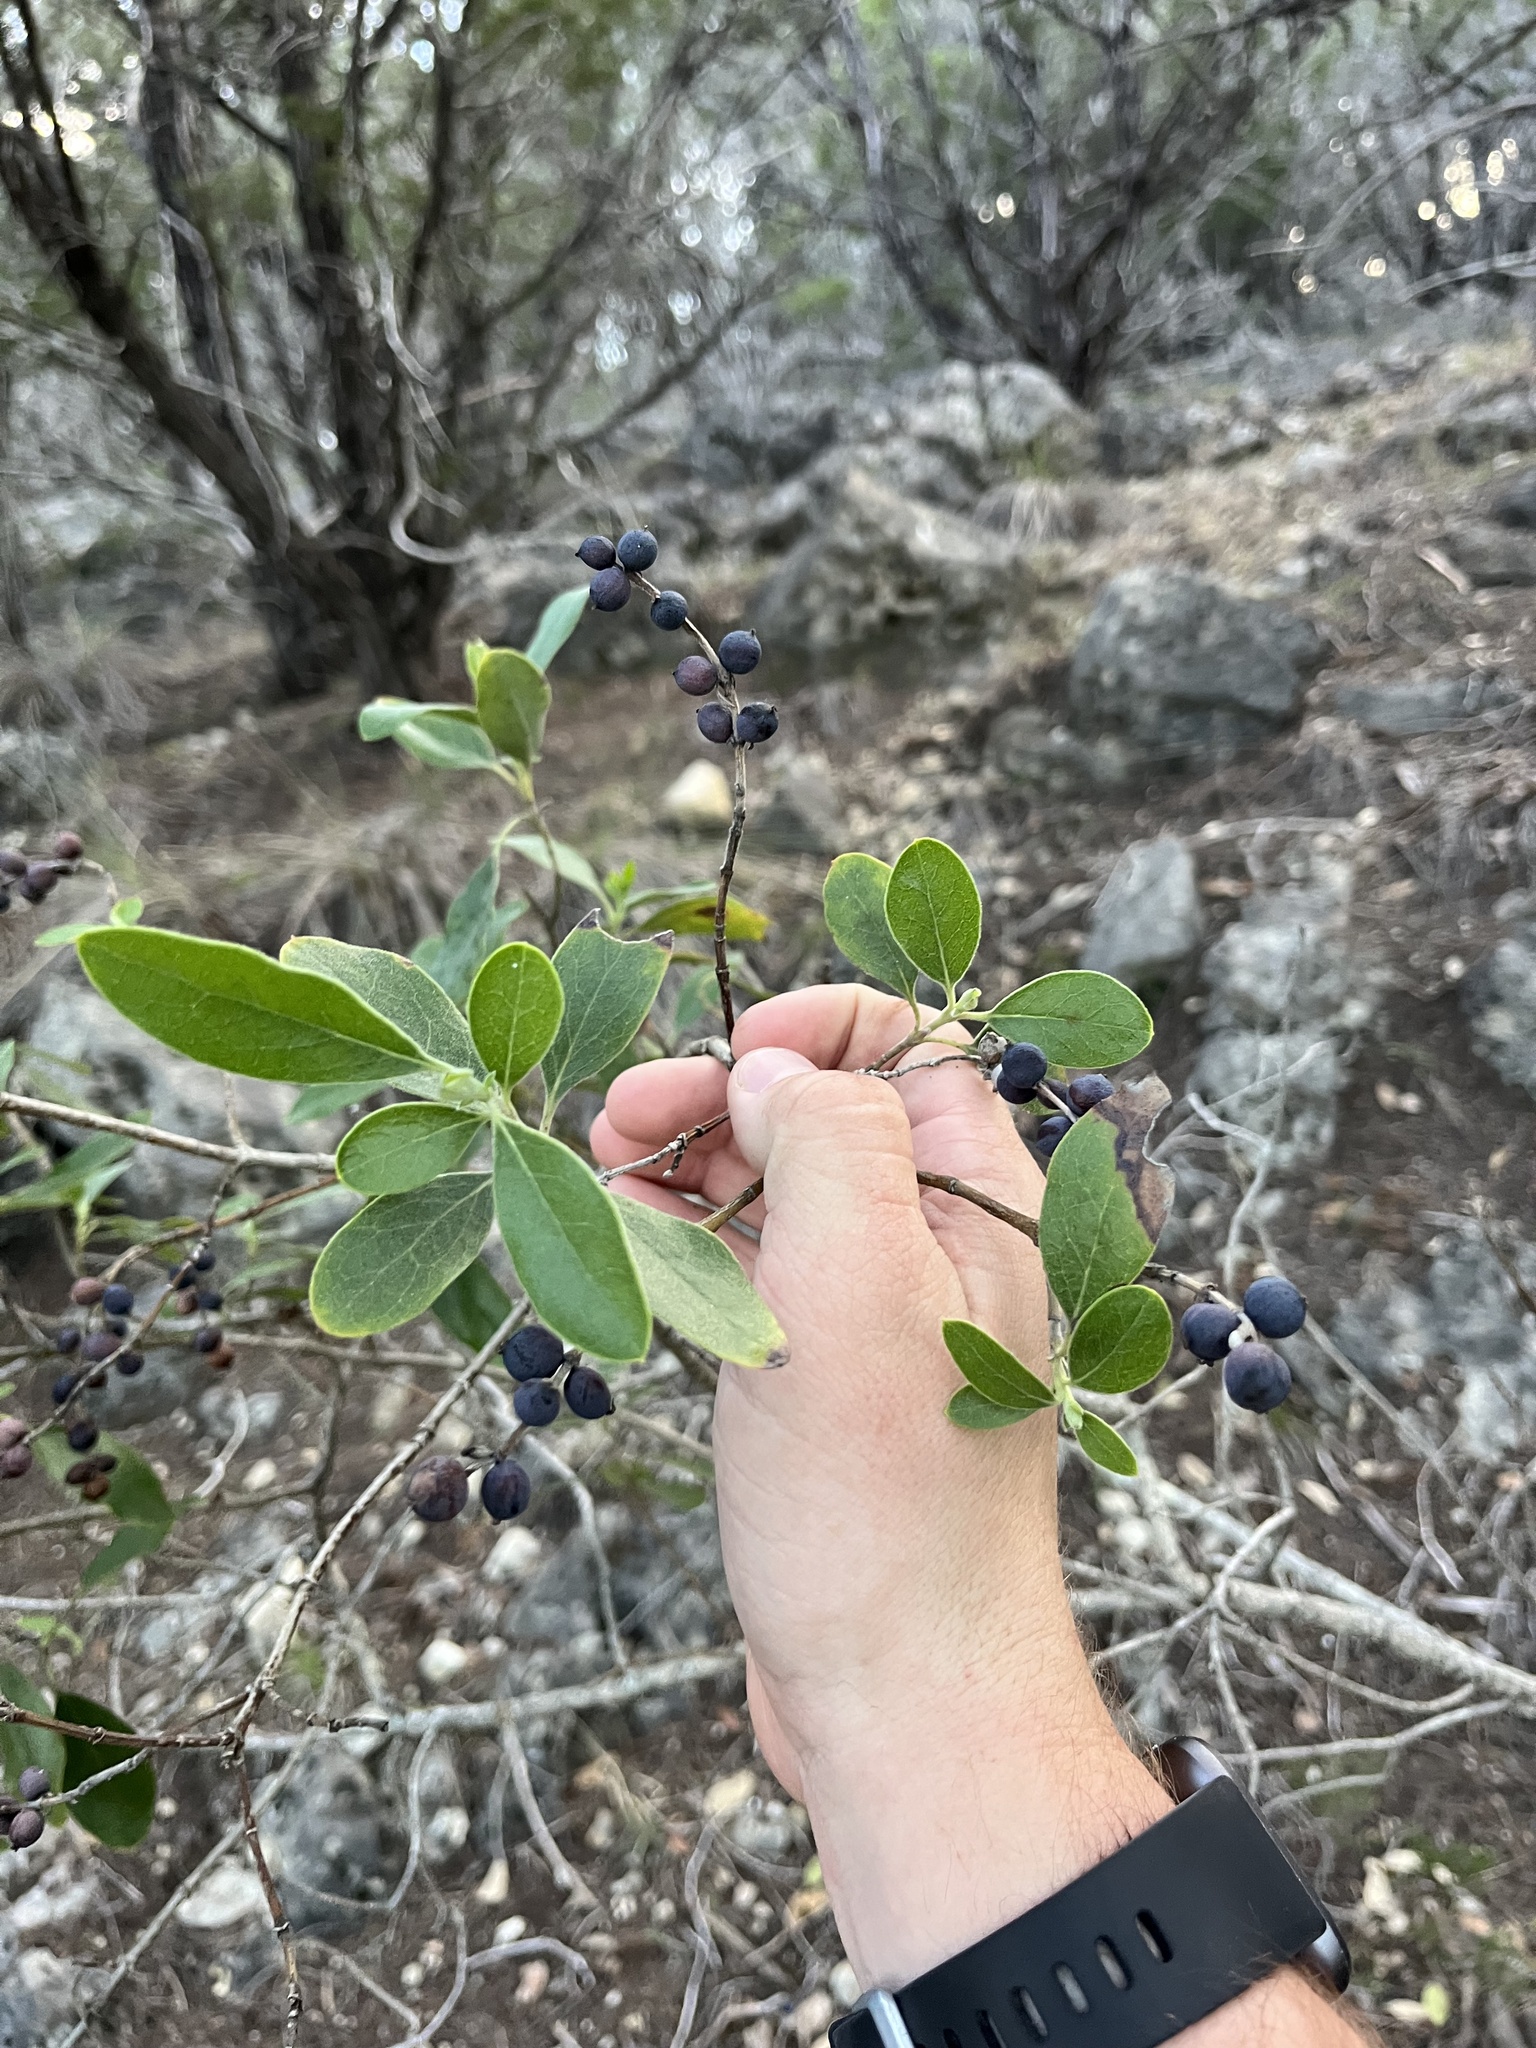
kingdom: Plantae
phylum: Tracheophyta
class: Magnoliopsida
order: Garryales
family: Garryaceae
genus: Garrya
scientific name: Garrya lindheimeri
